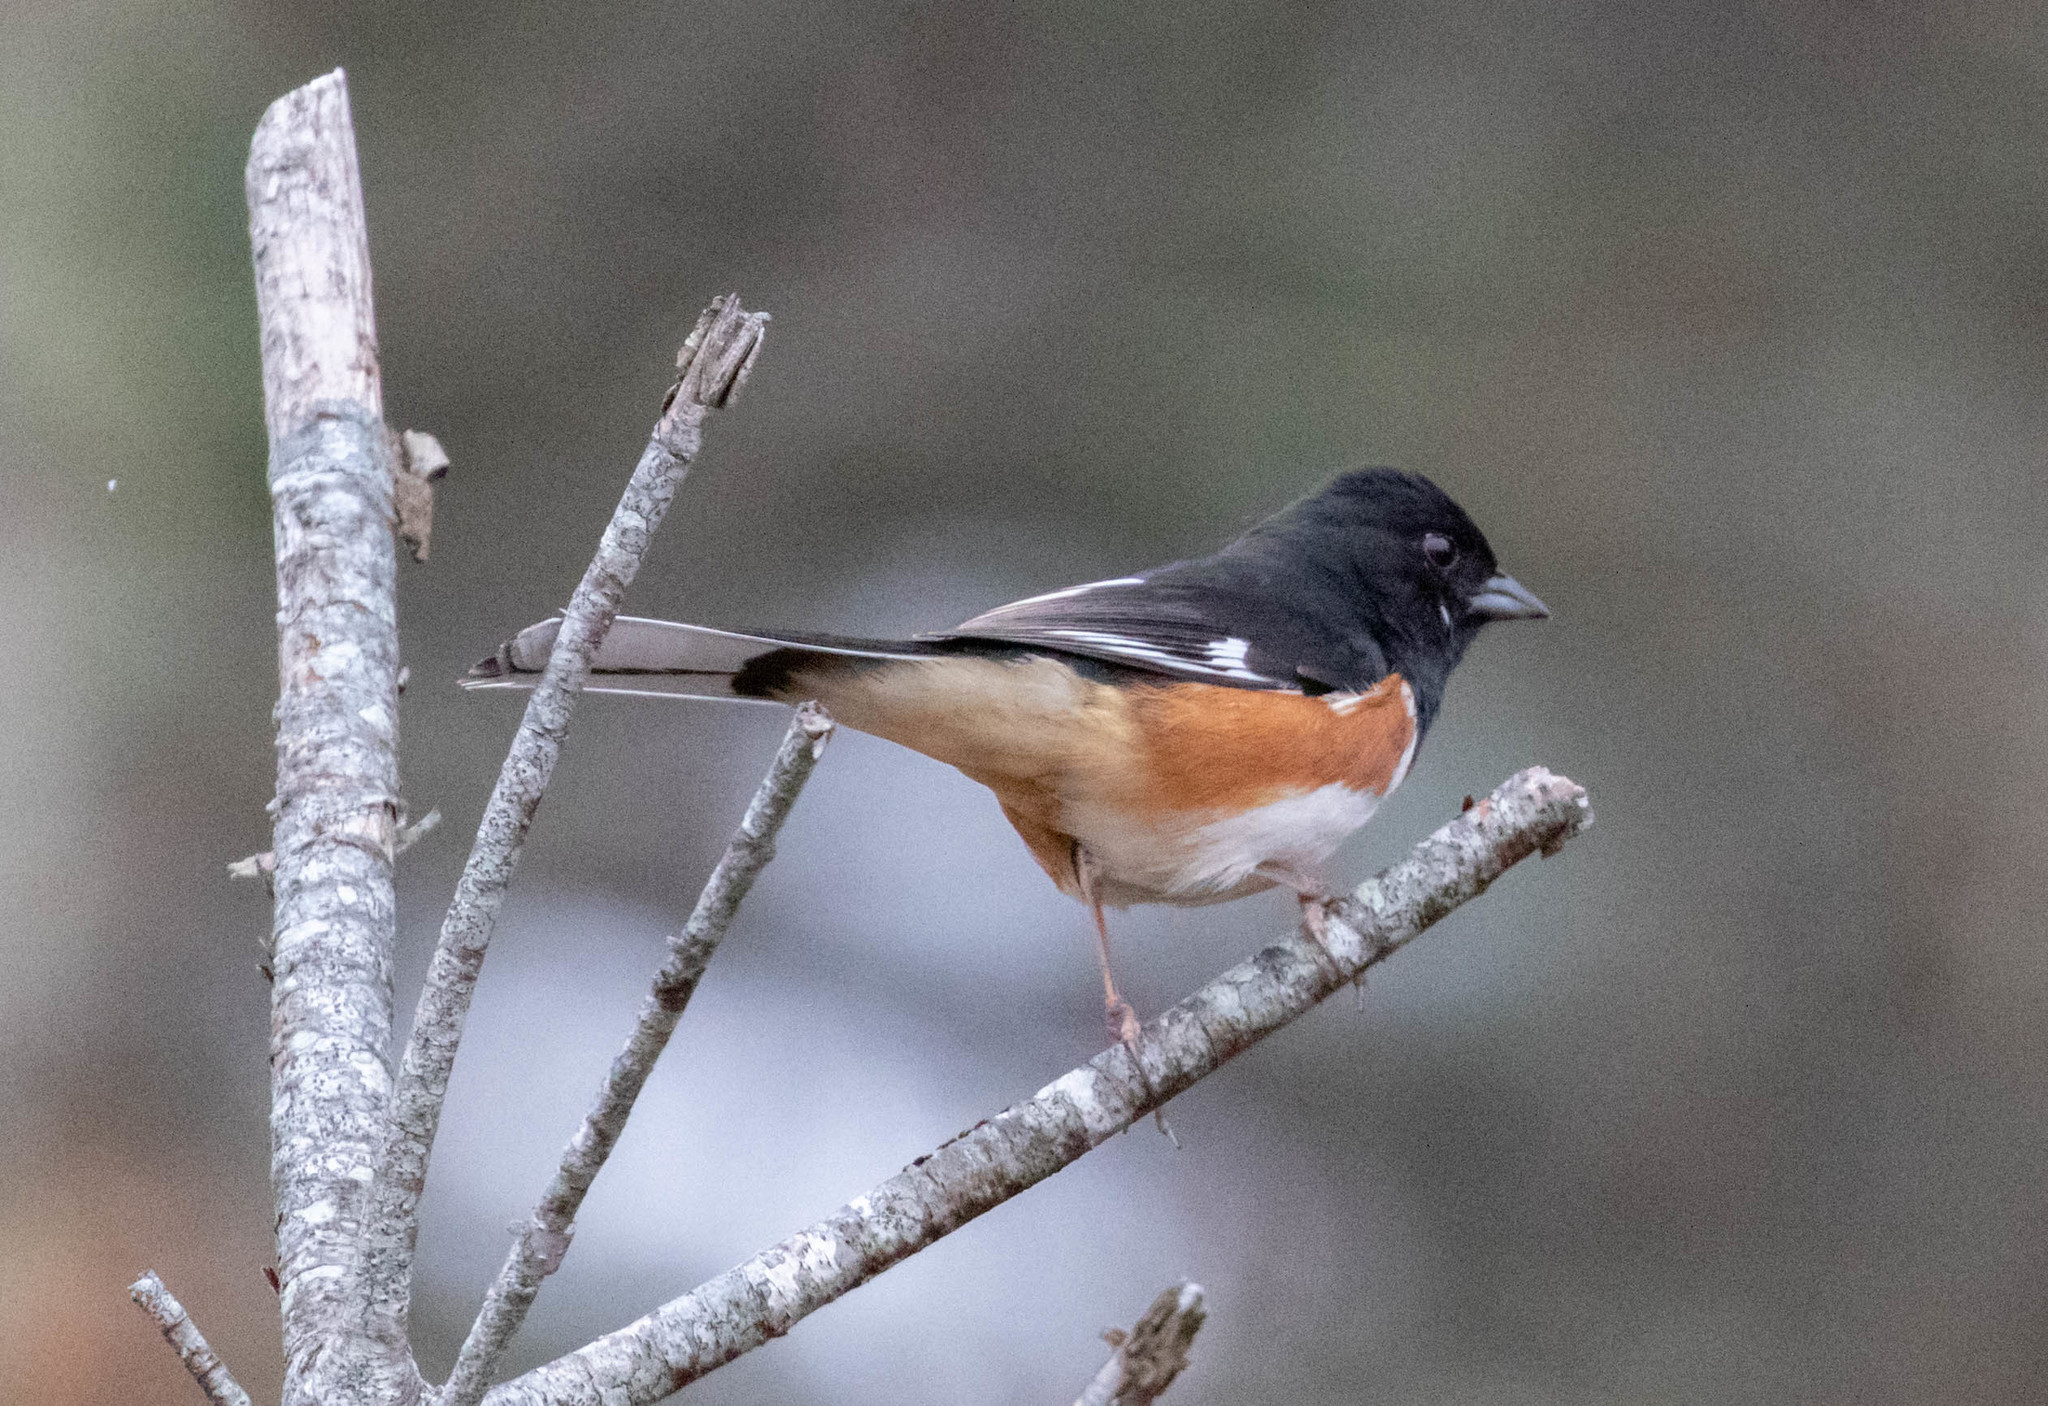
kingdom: Animalia
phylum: Chordata
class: Aves
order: Passeriformes
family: Passerellidae
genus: Pipilo
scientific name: Pipilo erythrophthalmus
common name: Eastern towhee
